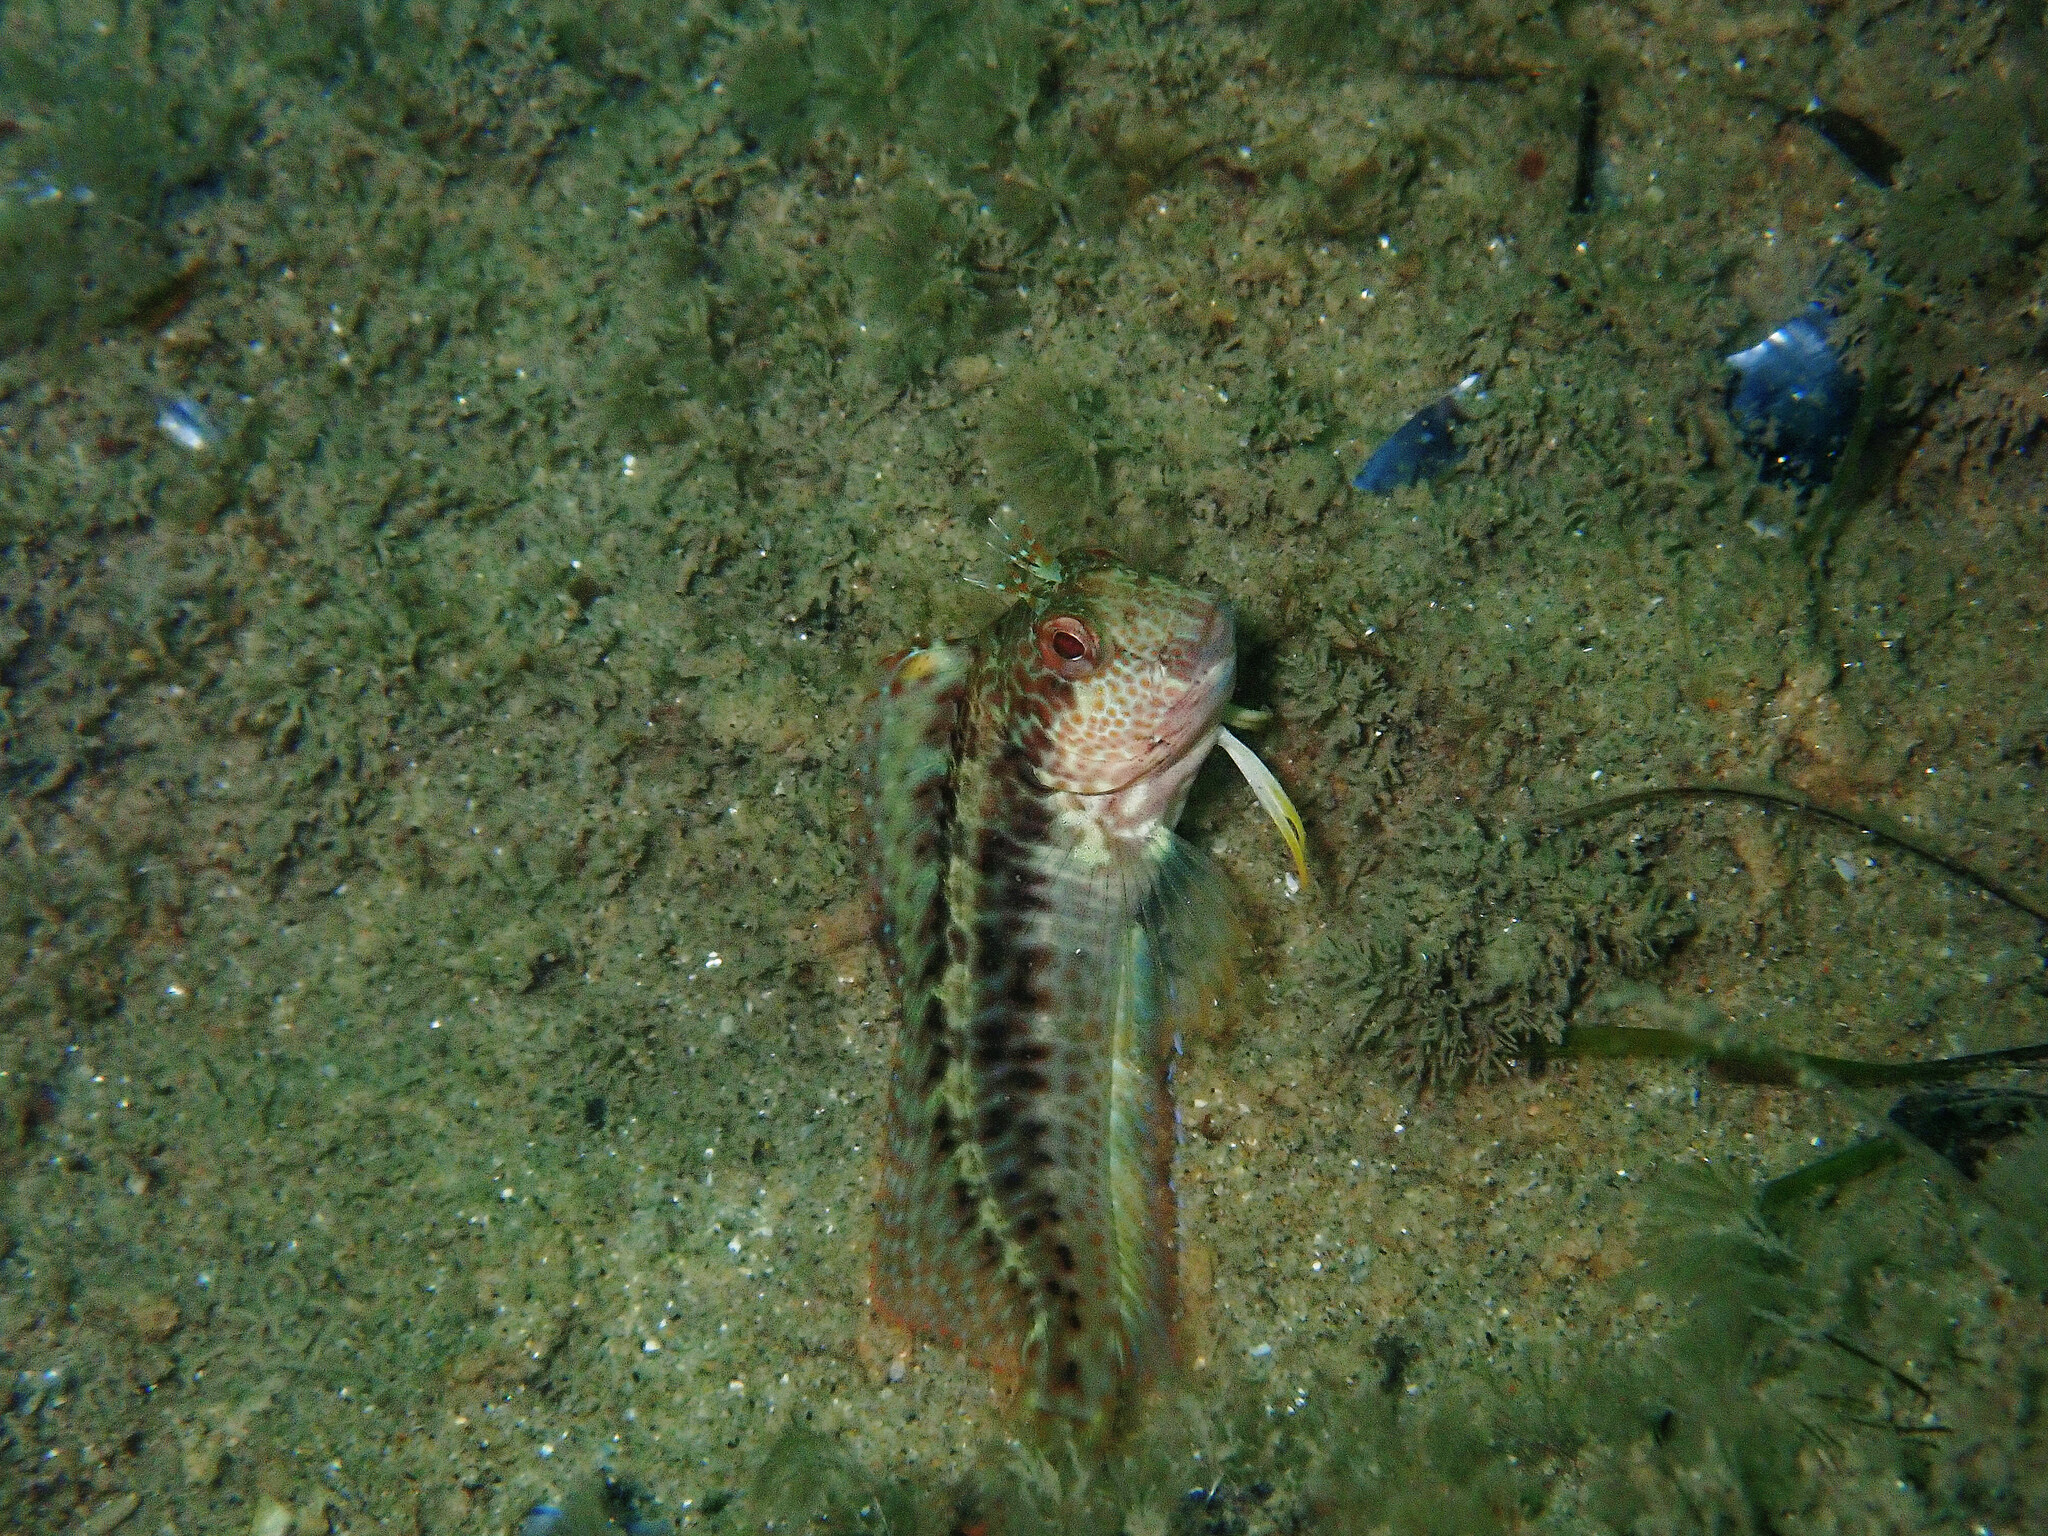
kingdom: Animalia
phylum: Chordata
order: Perciformes
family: Blenniidae
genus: Parablennius
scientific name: Parablennius pilicornis
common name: Ringneck blenny
